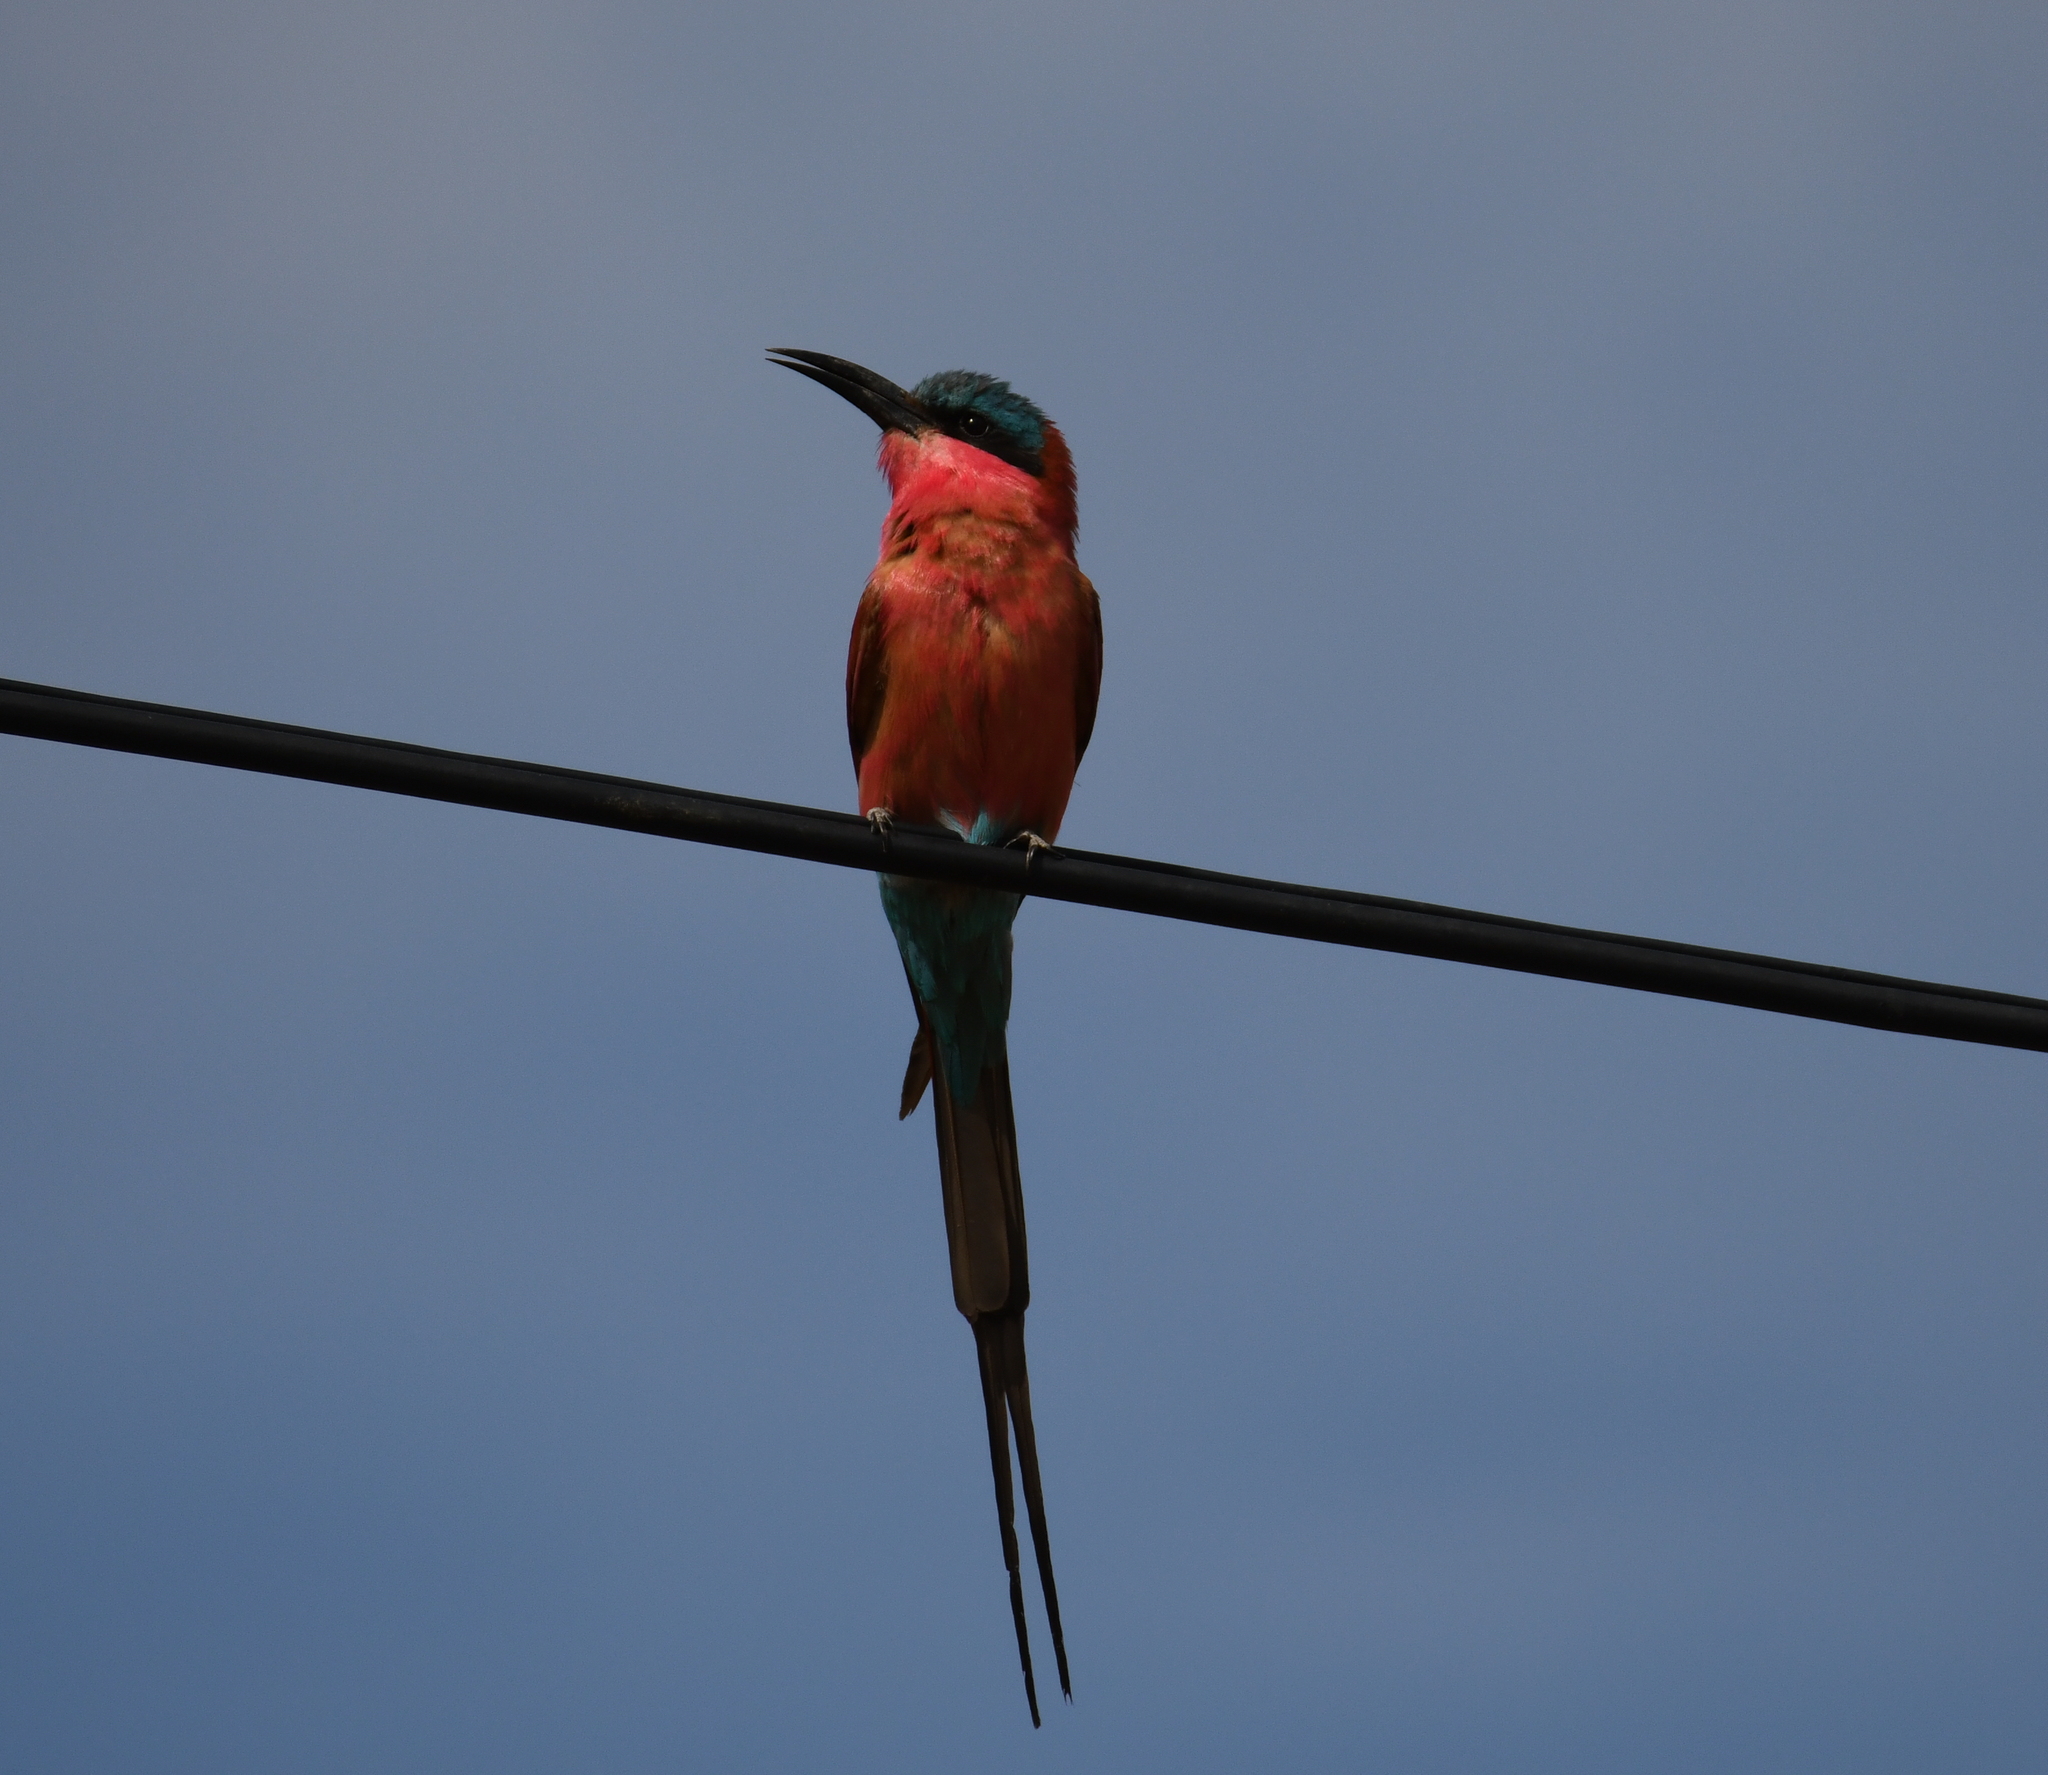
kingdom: Animalia
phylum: Chordata
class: Aves
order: Coraciiformes
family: Meropidae
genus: Merops
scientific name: Merops nubicoides
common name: Southern carmine bee-eater
